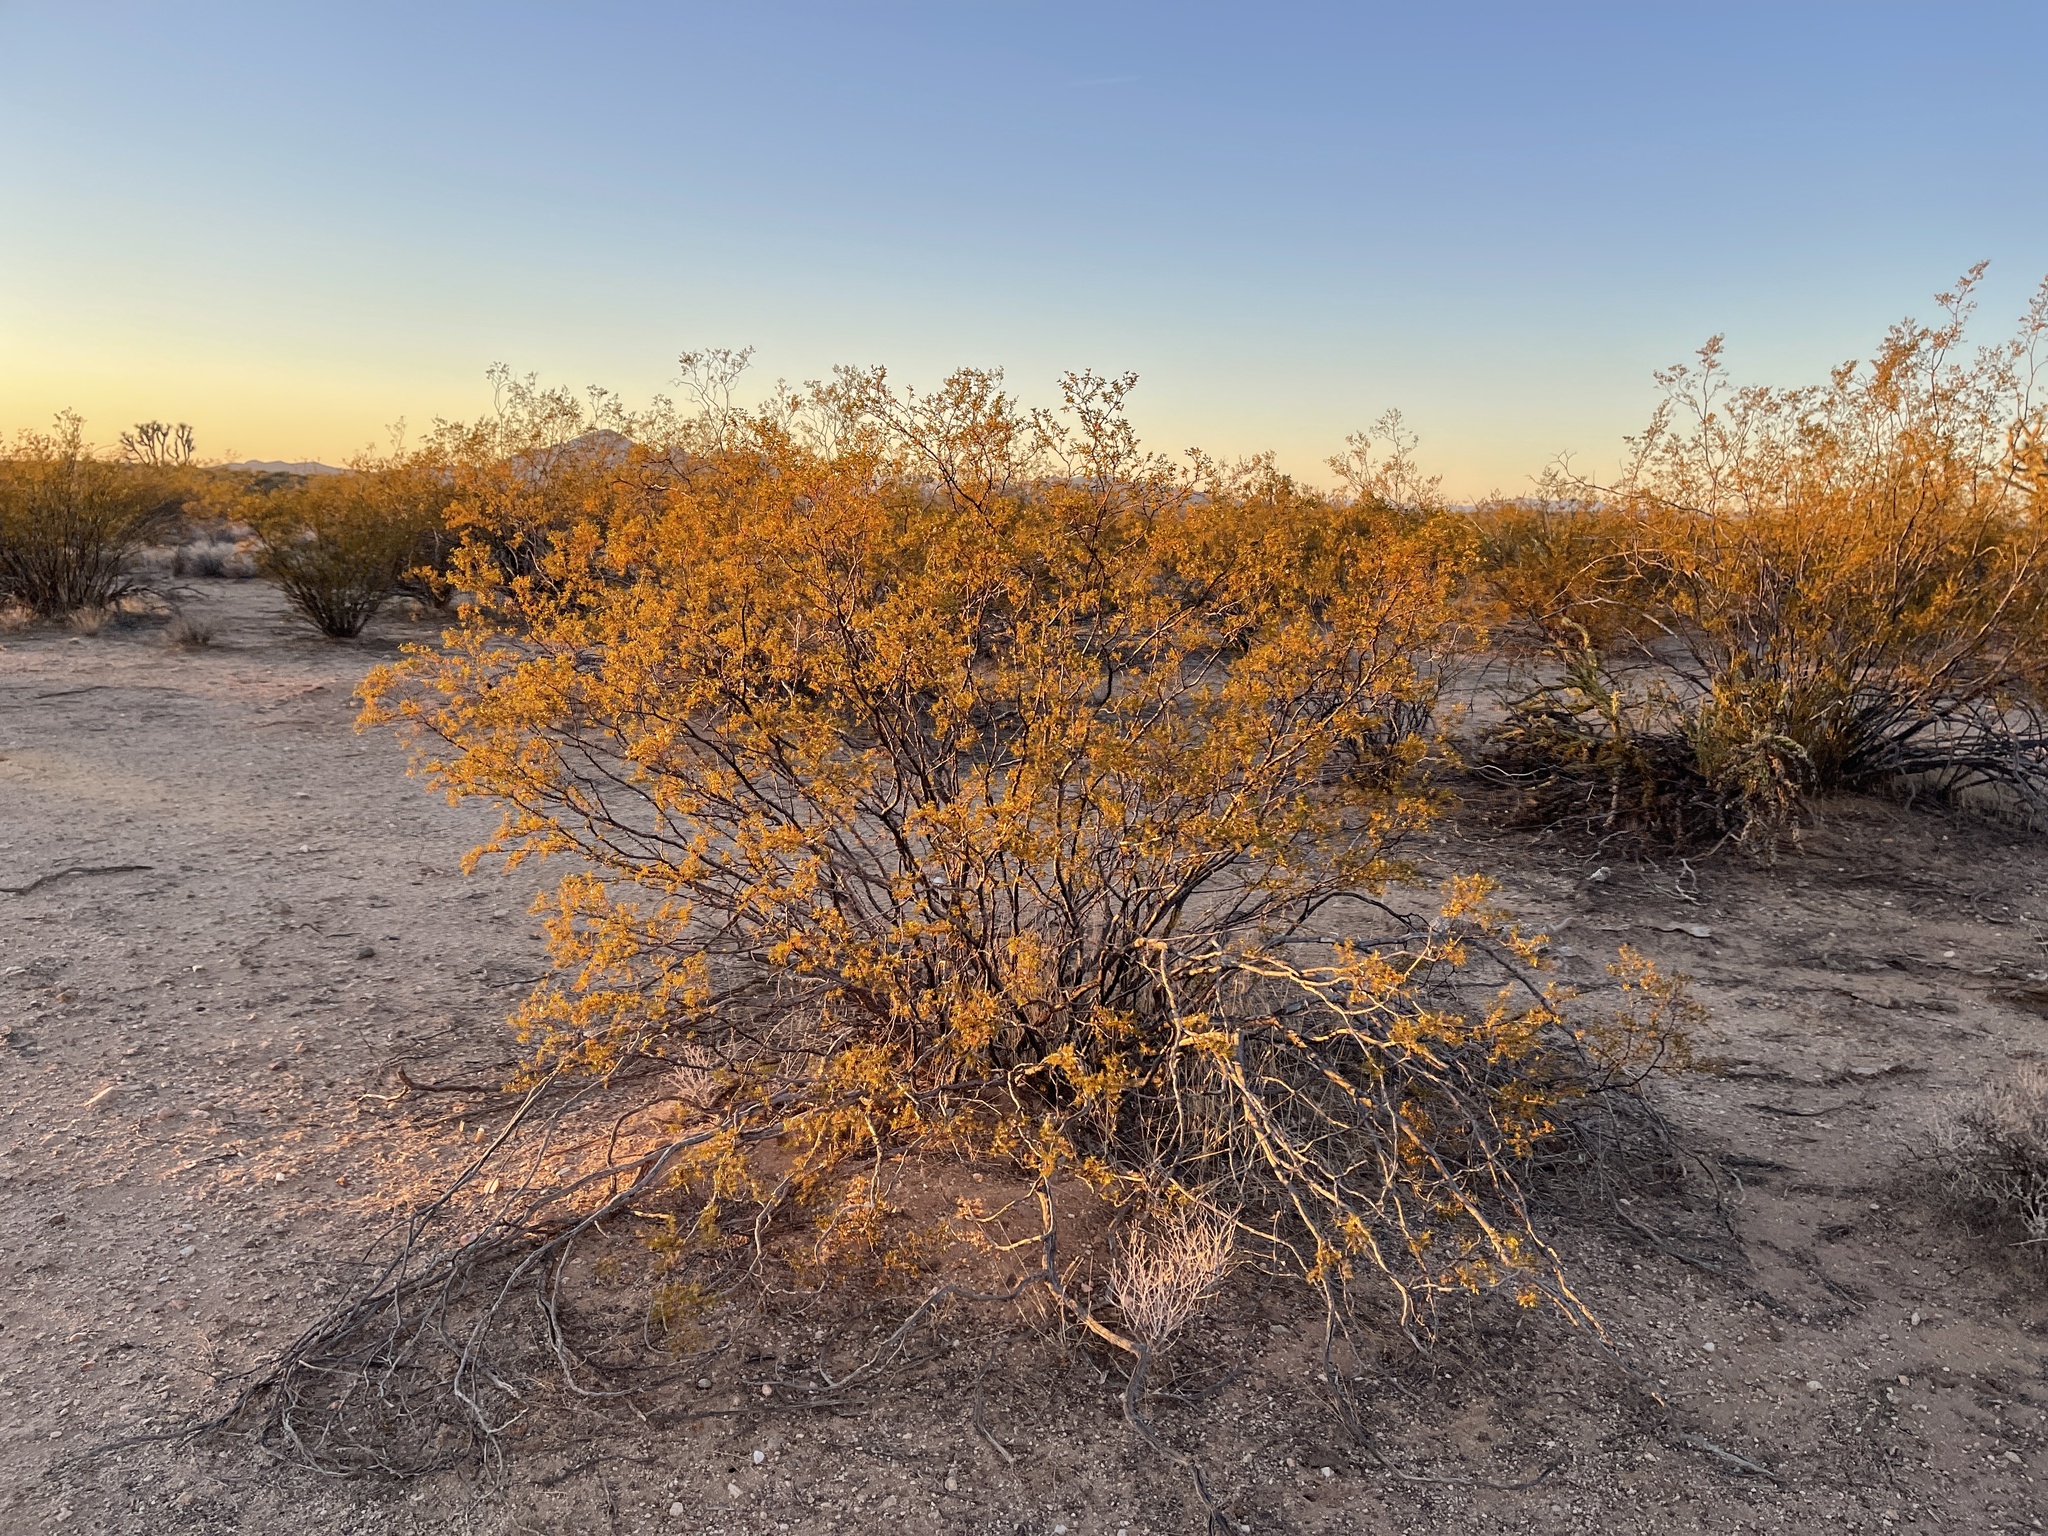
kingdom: Plantae
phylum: Tracheophyta
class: Magnoliopsida
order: Zygophyllales
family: Zygophyllaceae
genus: Larrea
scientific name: Larrea tridentata
